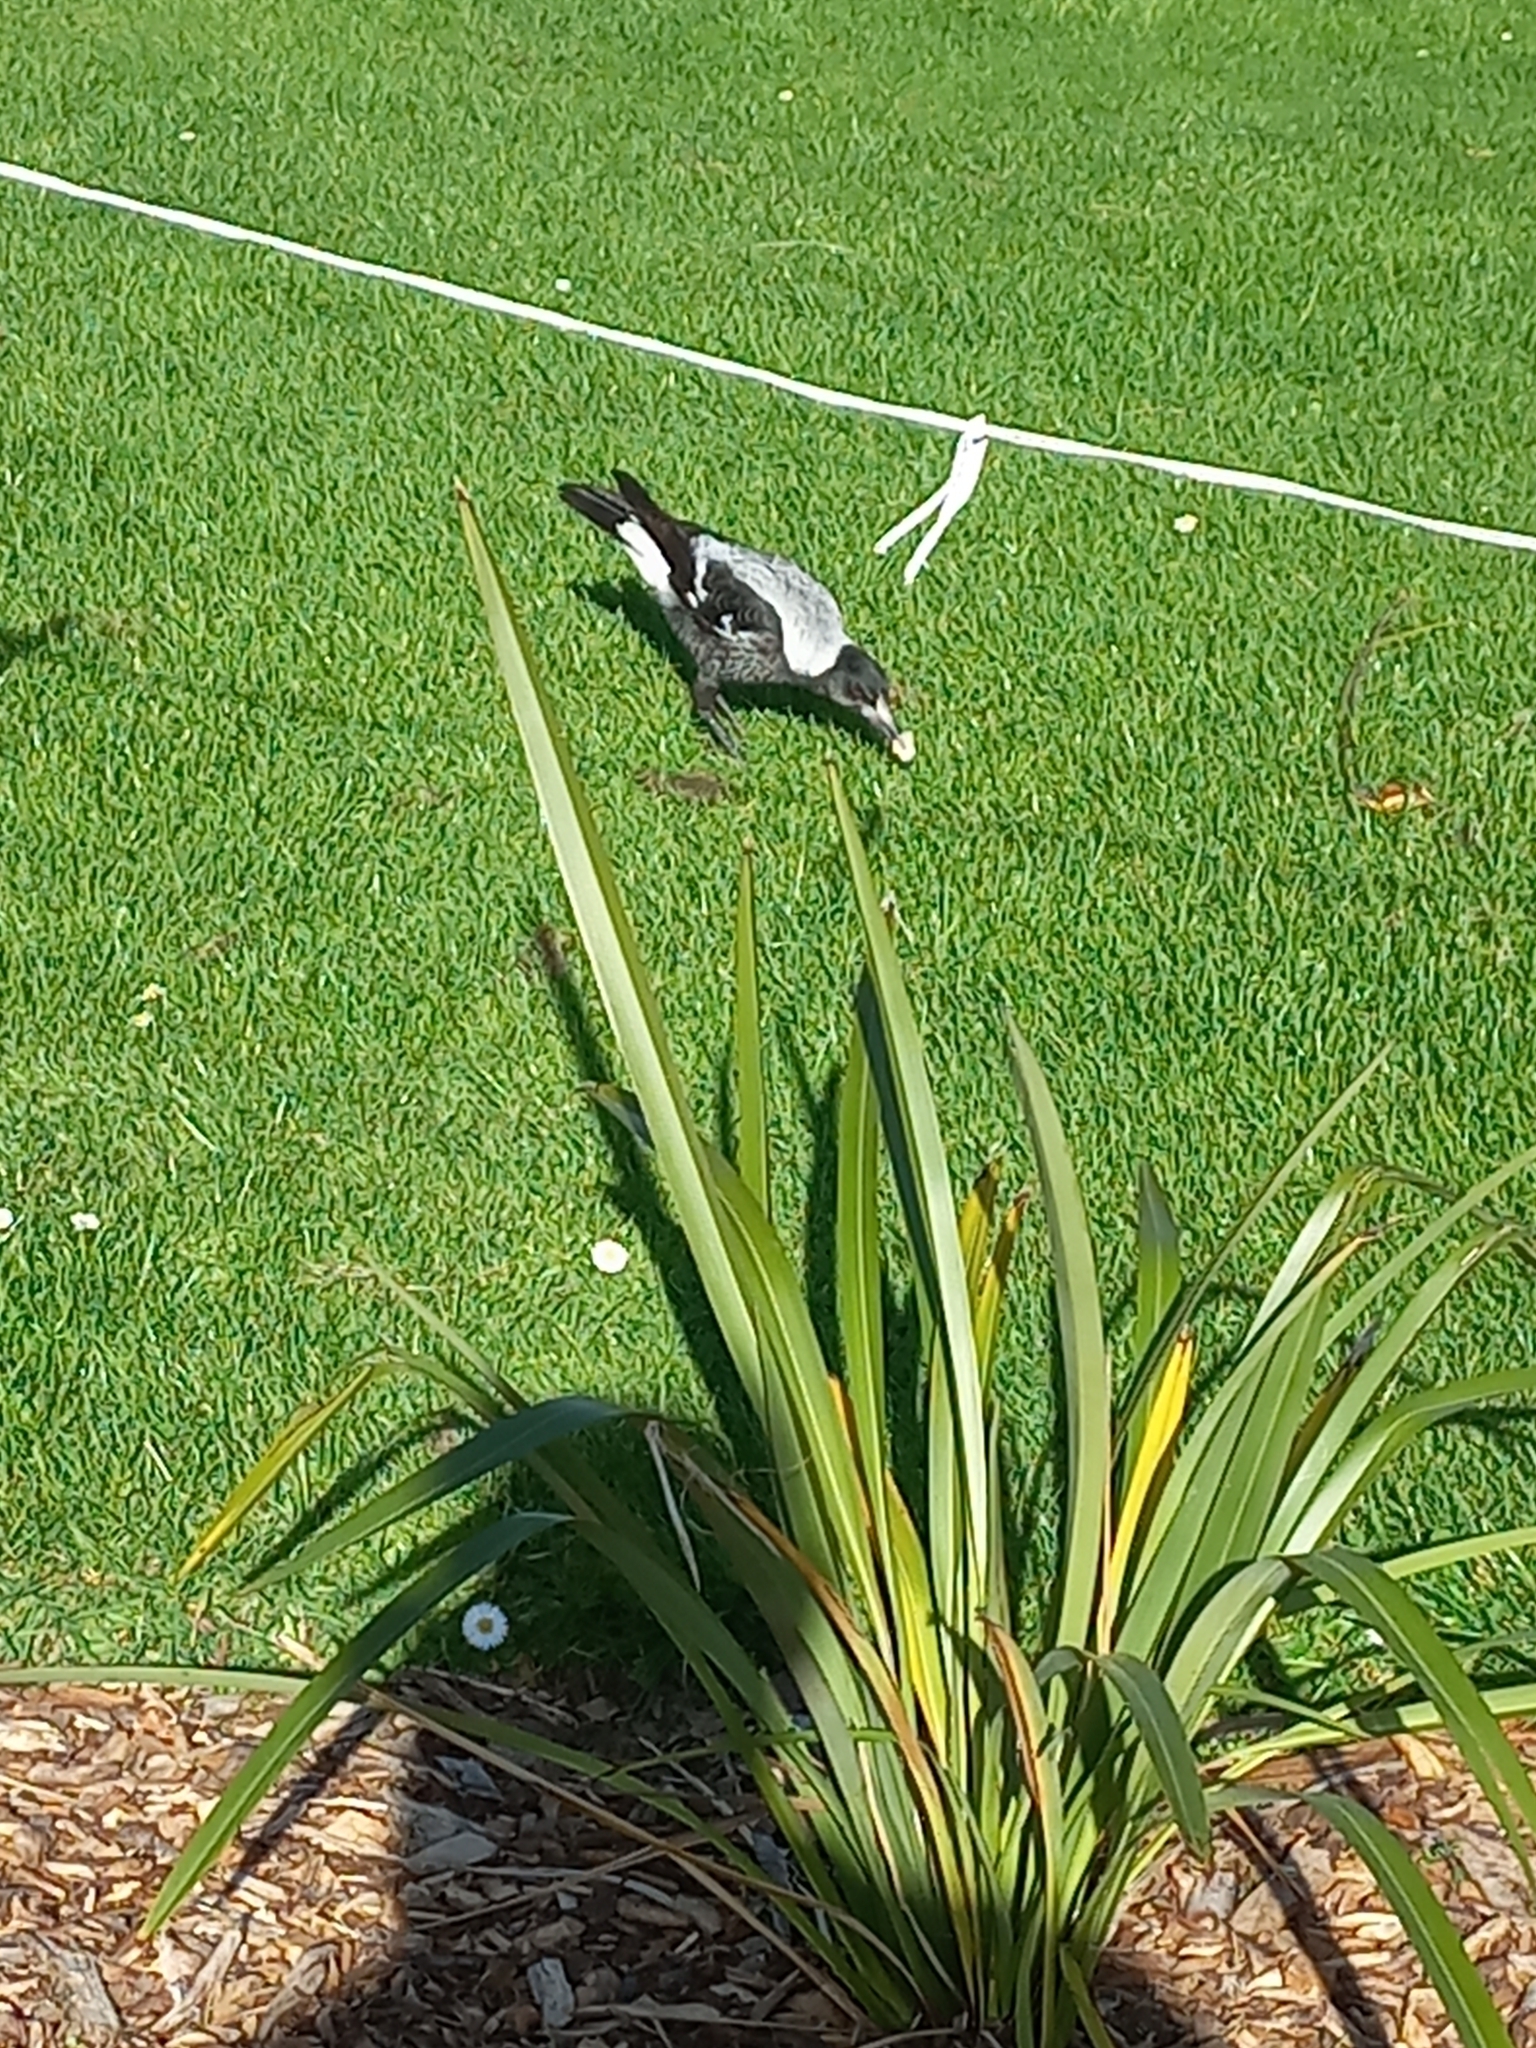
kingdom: Animalia
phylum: Chordata
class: Aves
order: Passeriformes
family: Cracticidae
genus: Gymnorhina
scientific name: Gymnorhina tibicen
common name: Australian magpie
